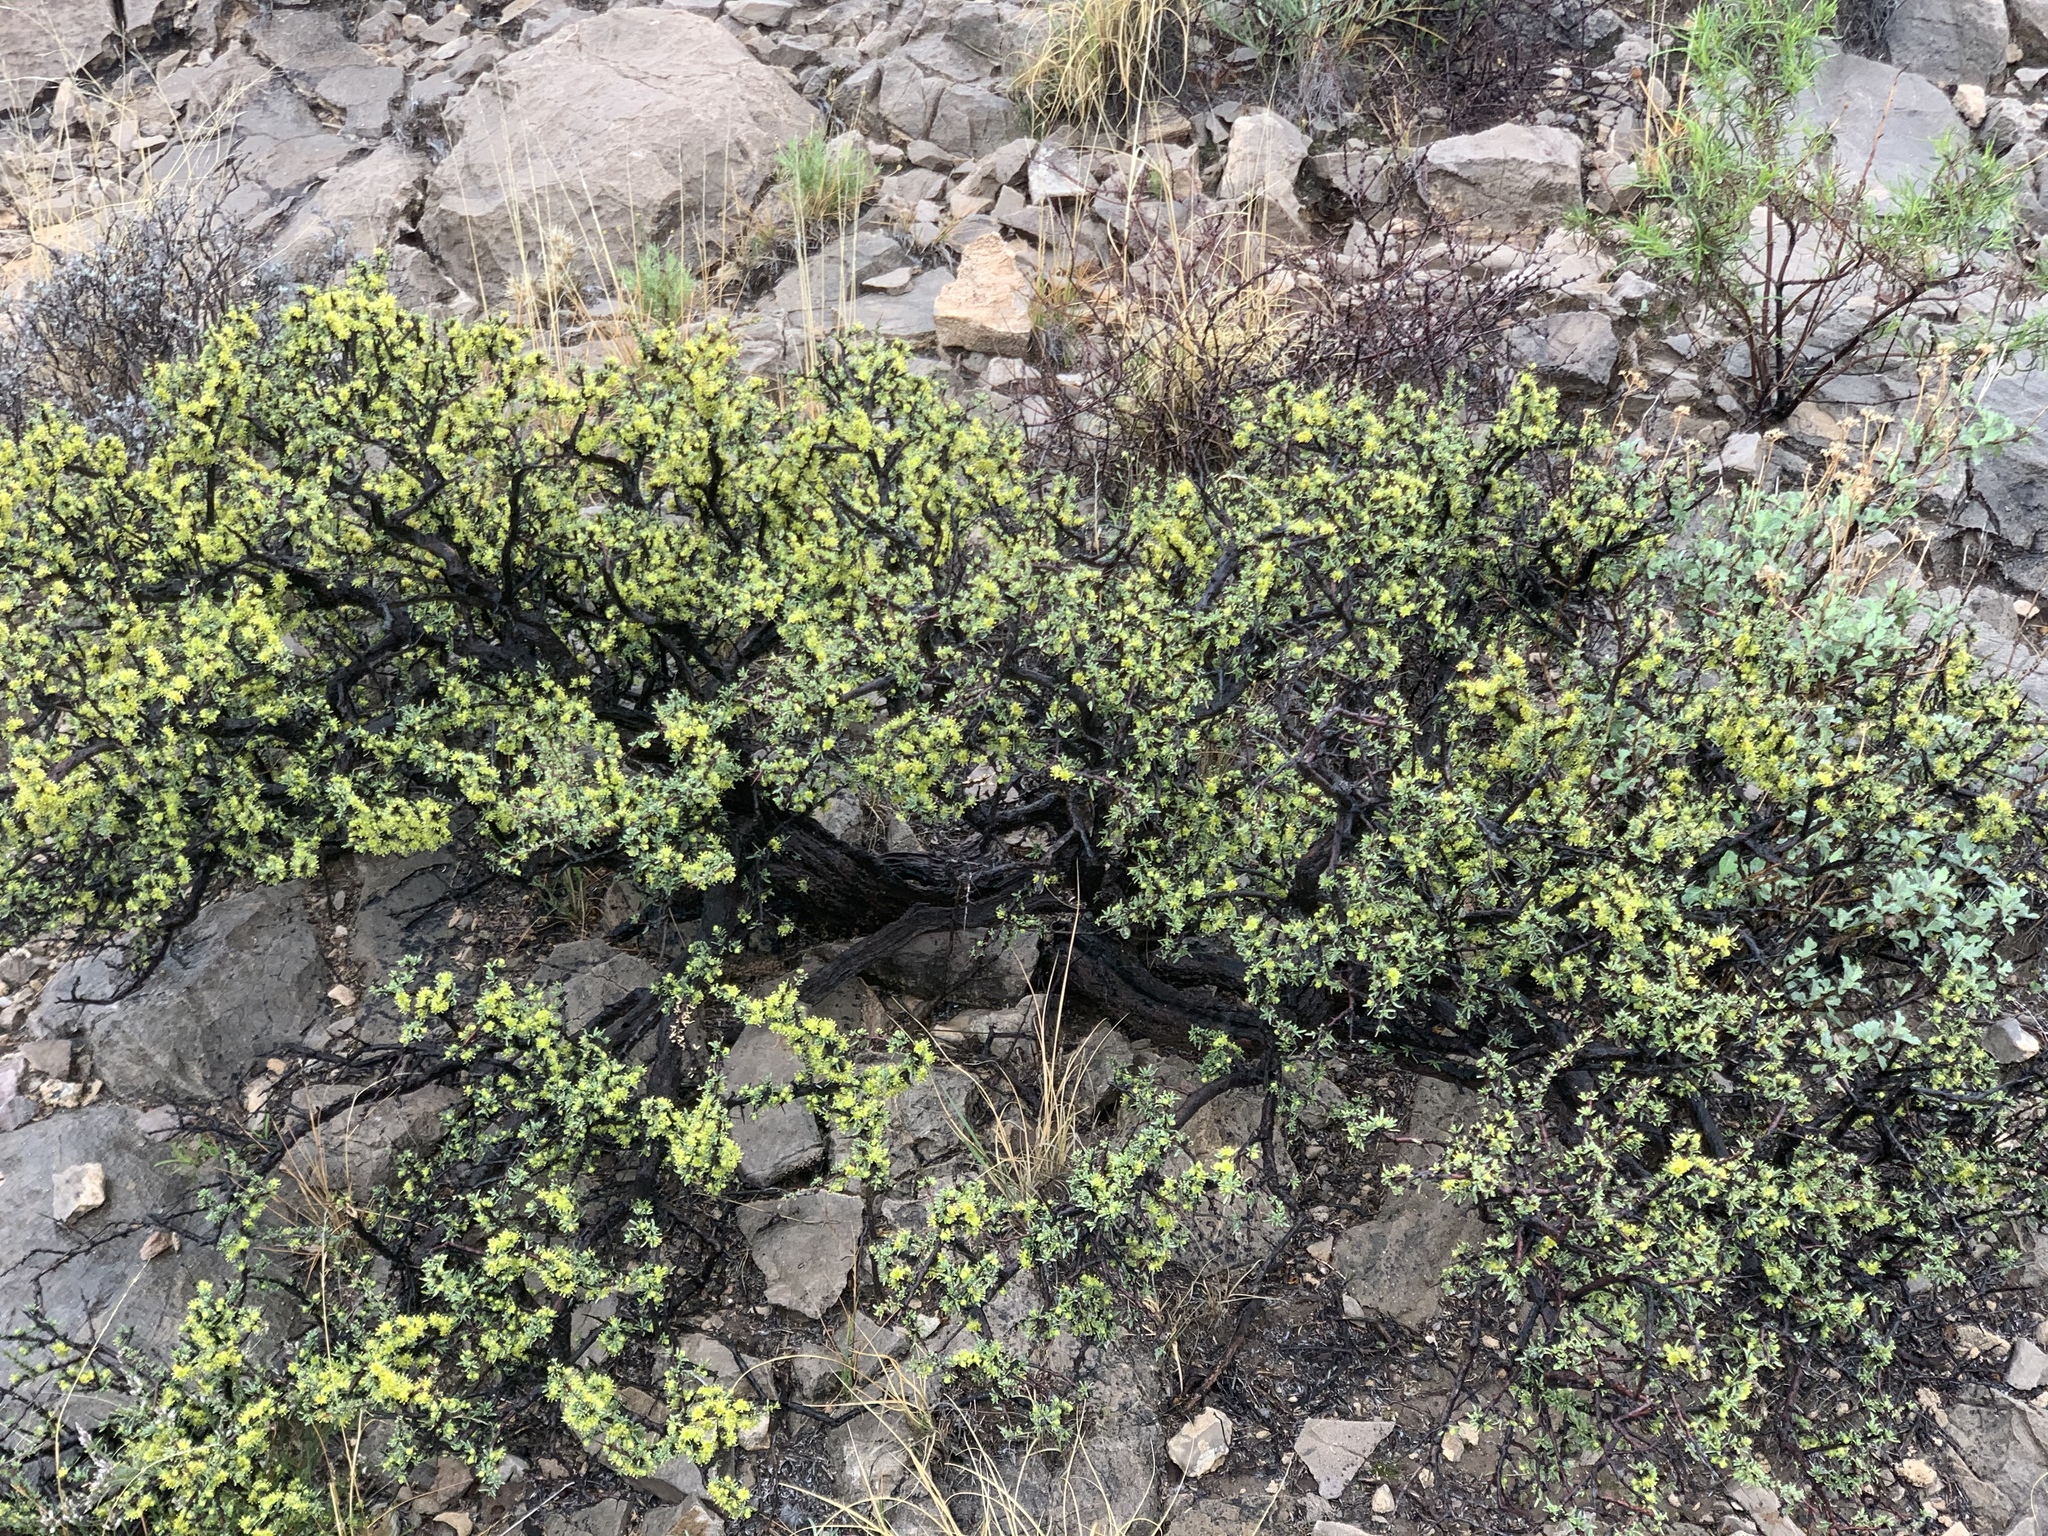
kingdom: Plantae
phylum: Tracheophyta
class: Magnoliopsida
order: Rosales
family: Rhamnaceae
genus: Condalia
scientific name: Condalia ericoides
